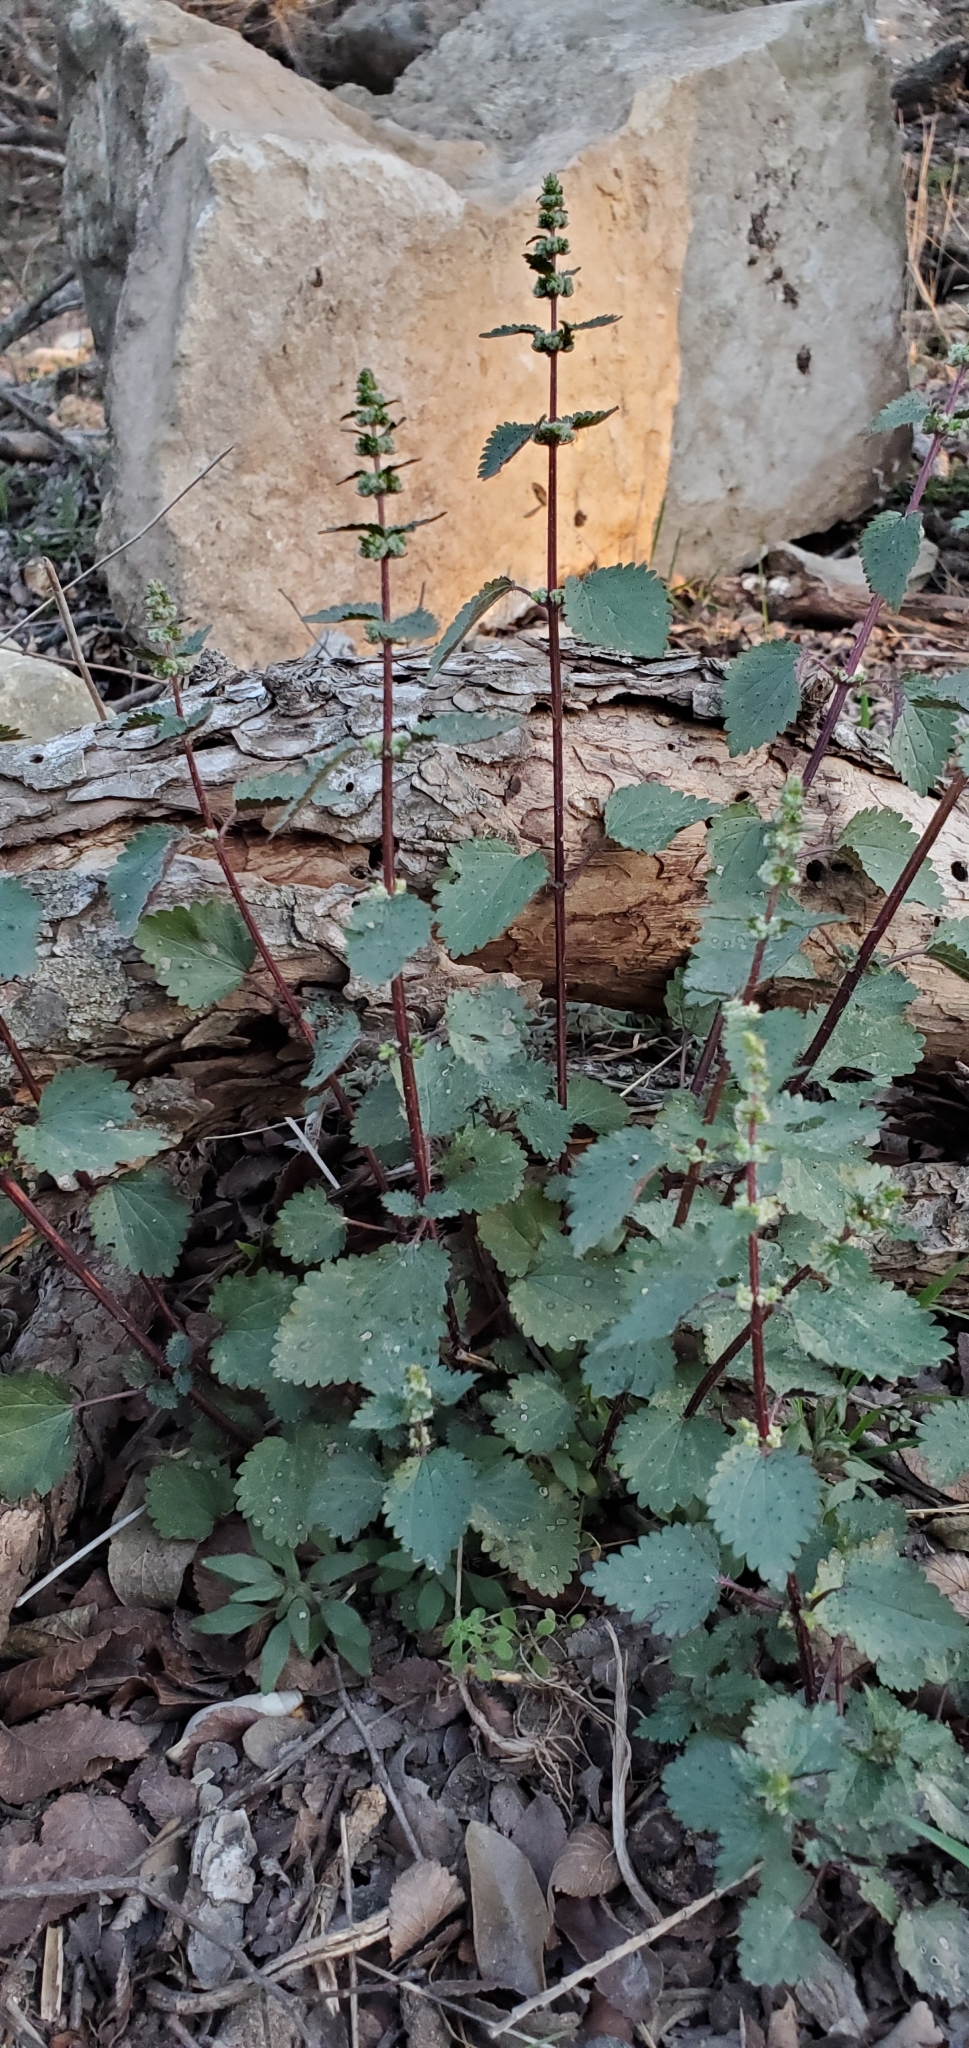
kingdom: Plantae
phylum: Tracheophyta
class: Magnoliopsida
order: Rosales
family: Urticaceae
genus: Urtica
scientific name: Urtica chamaedryoides
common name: Heart-leaf nettle
